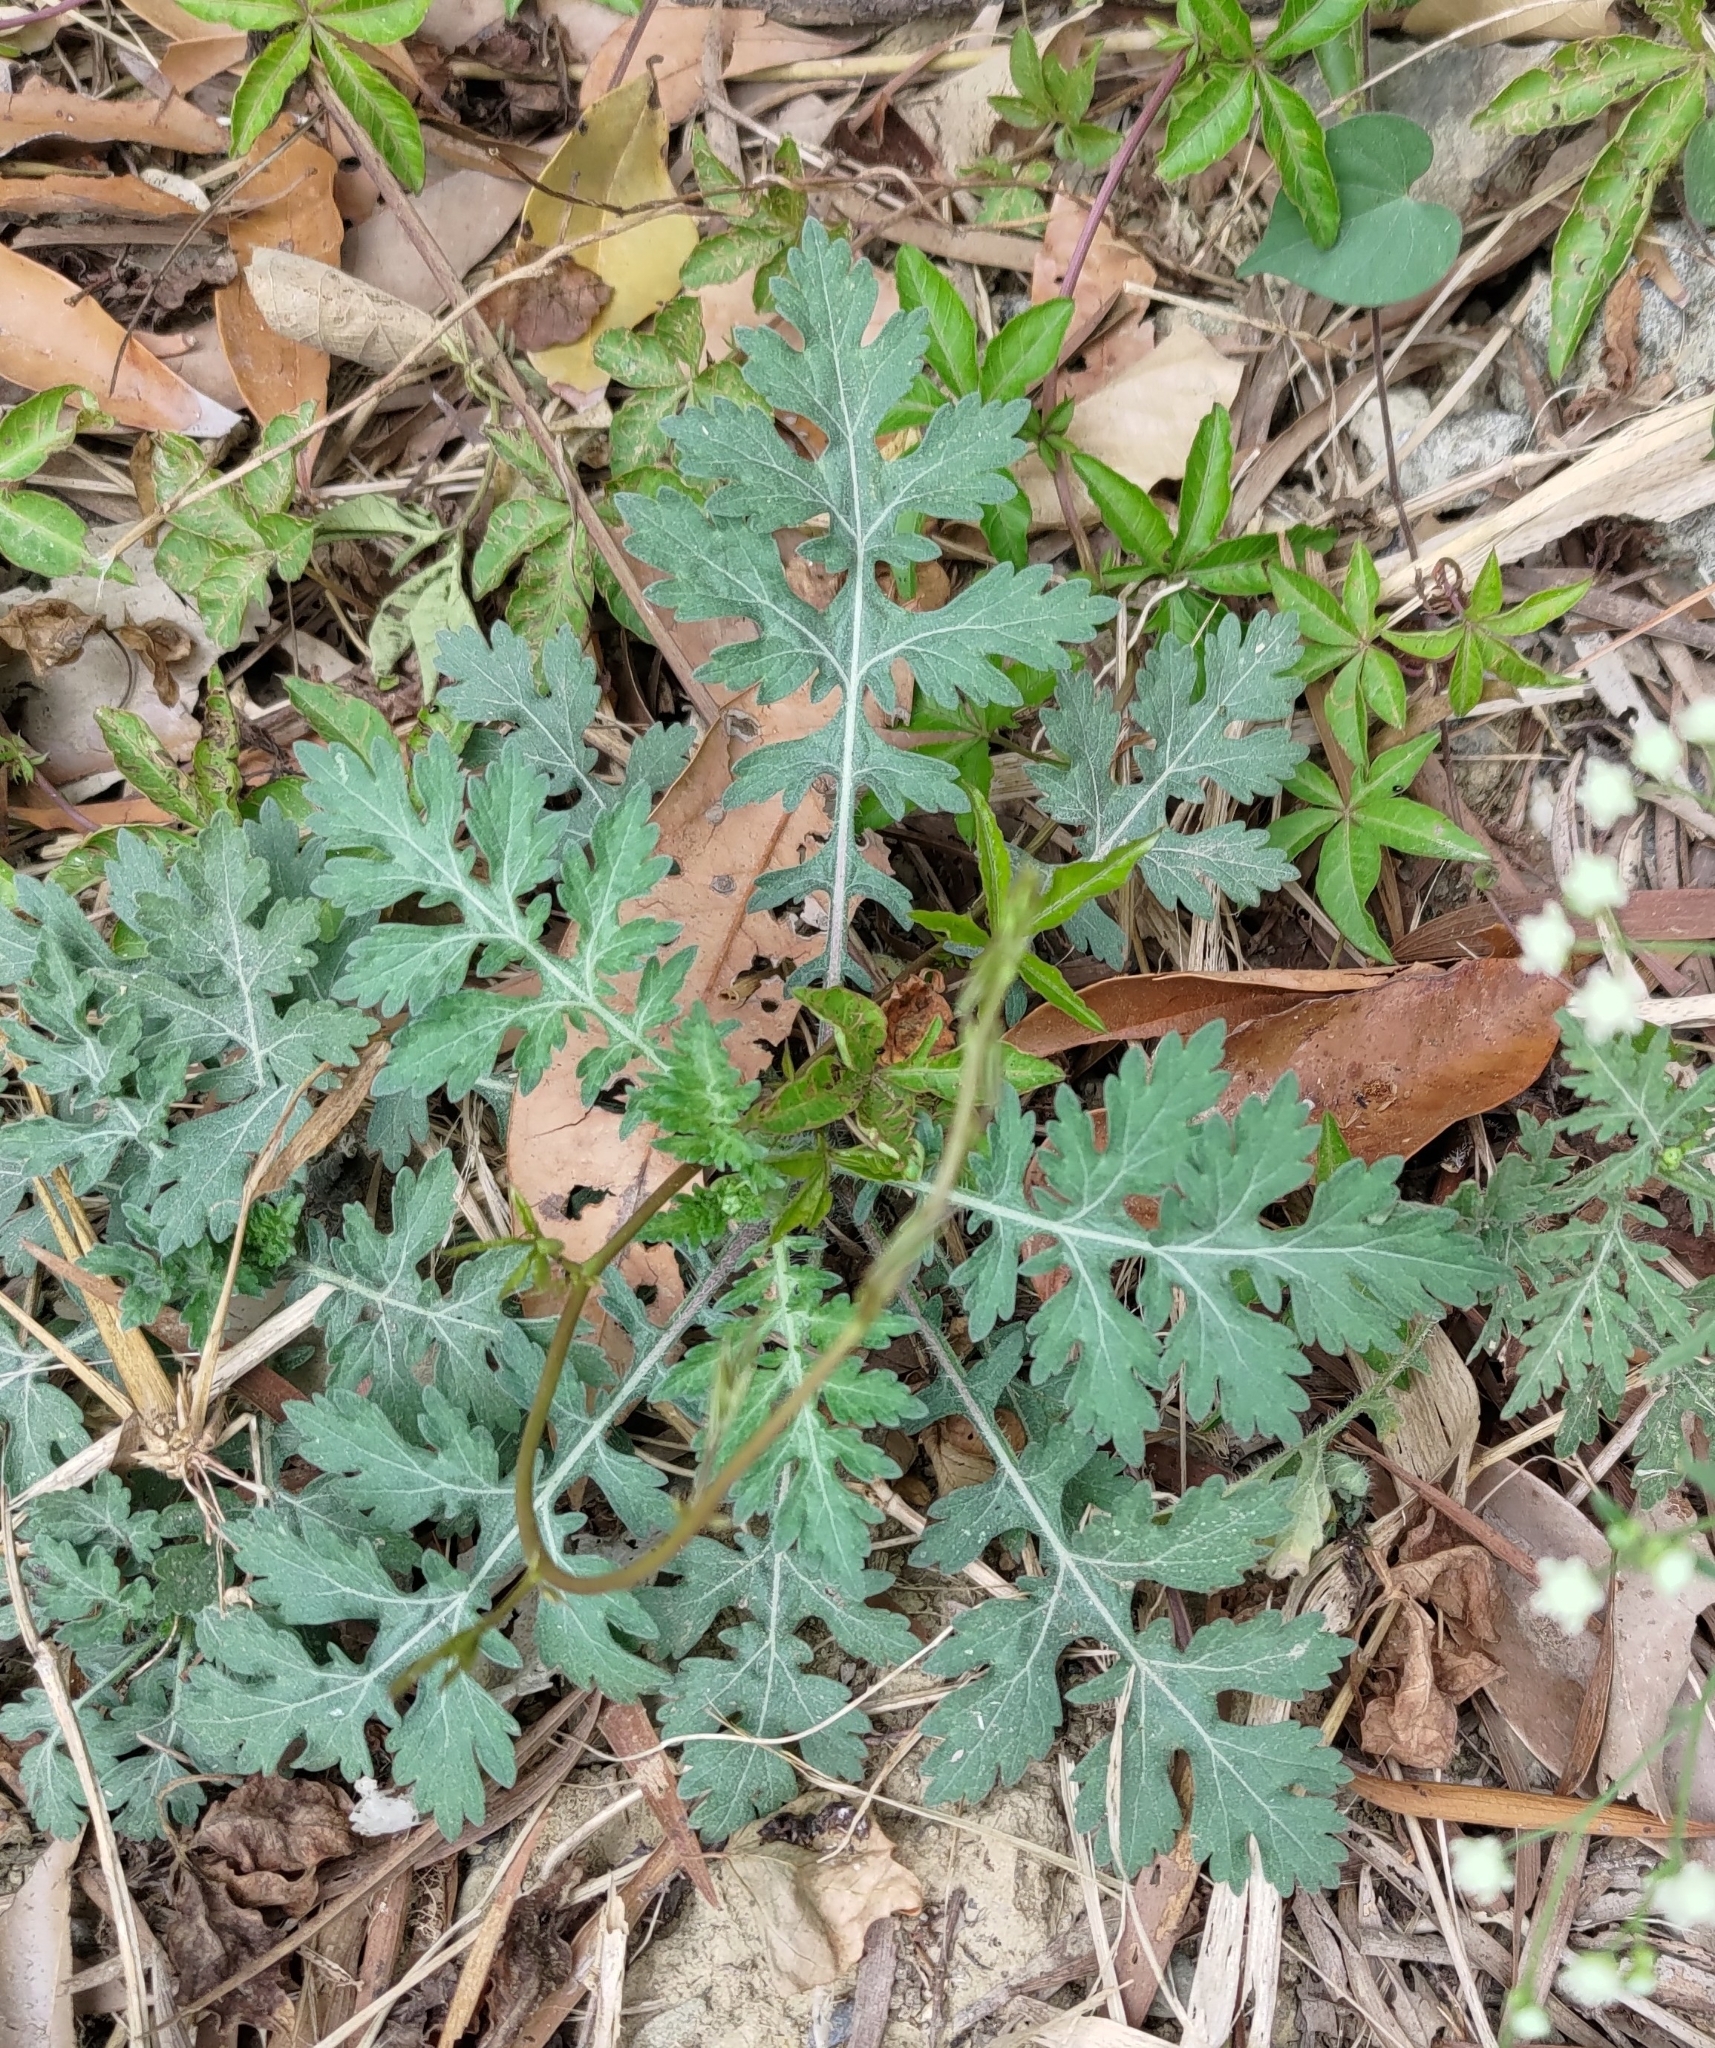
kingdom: Plantae
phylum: Tracheophyta
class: Magnoliopsida
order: Asterales
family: Asteraceae
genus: Parthenium
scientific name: Parthenium hysterophorus
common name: Santa maria feverfew
